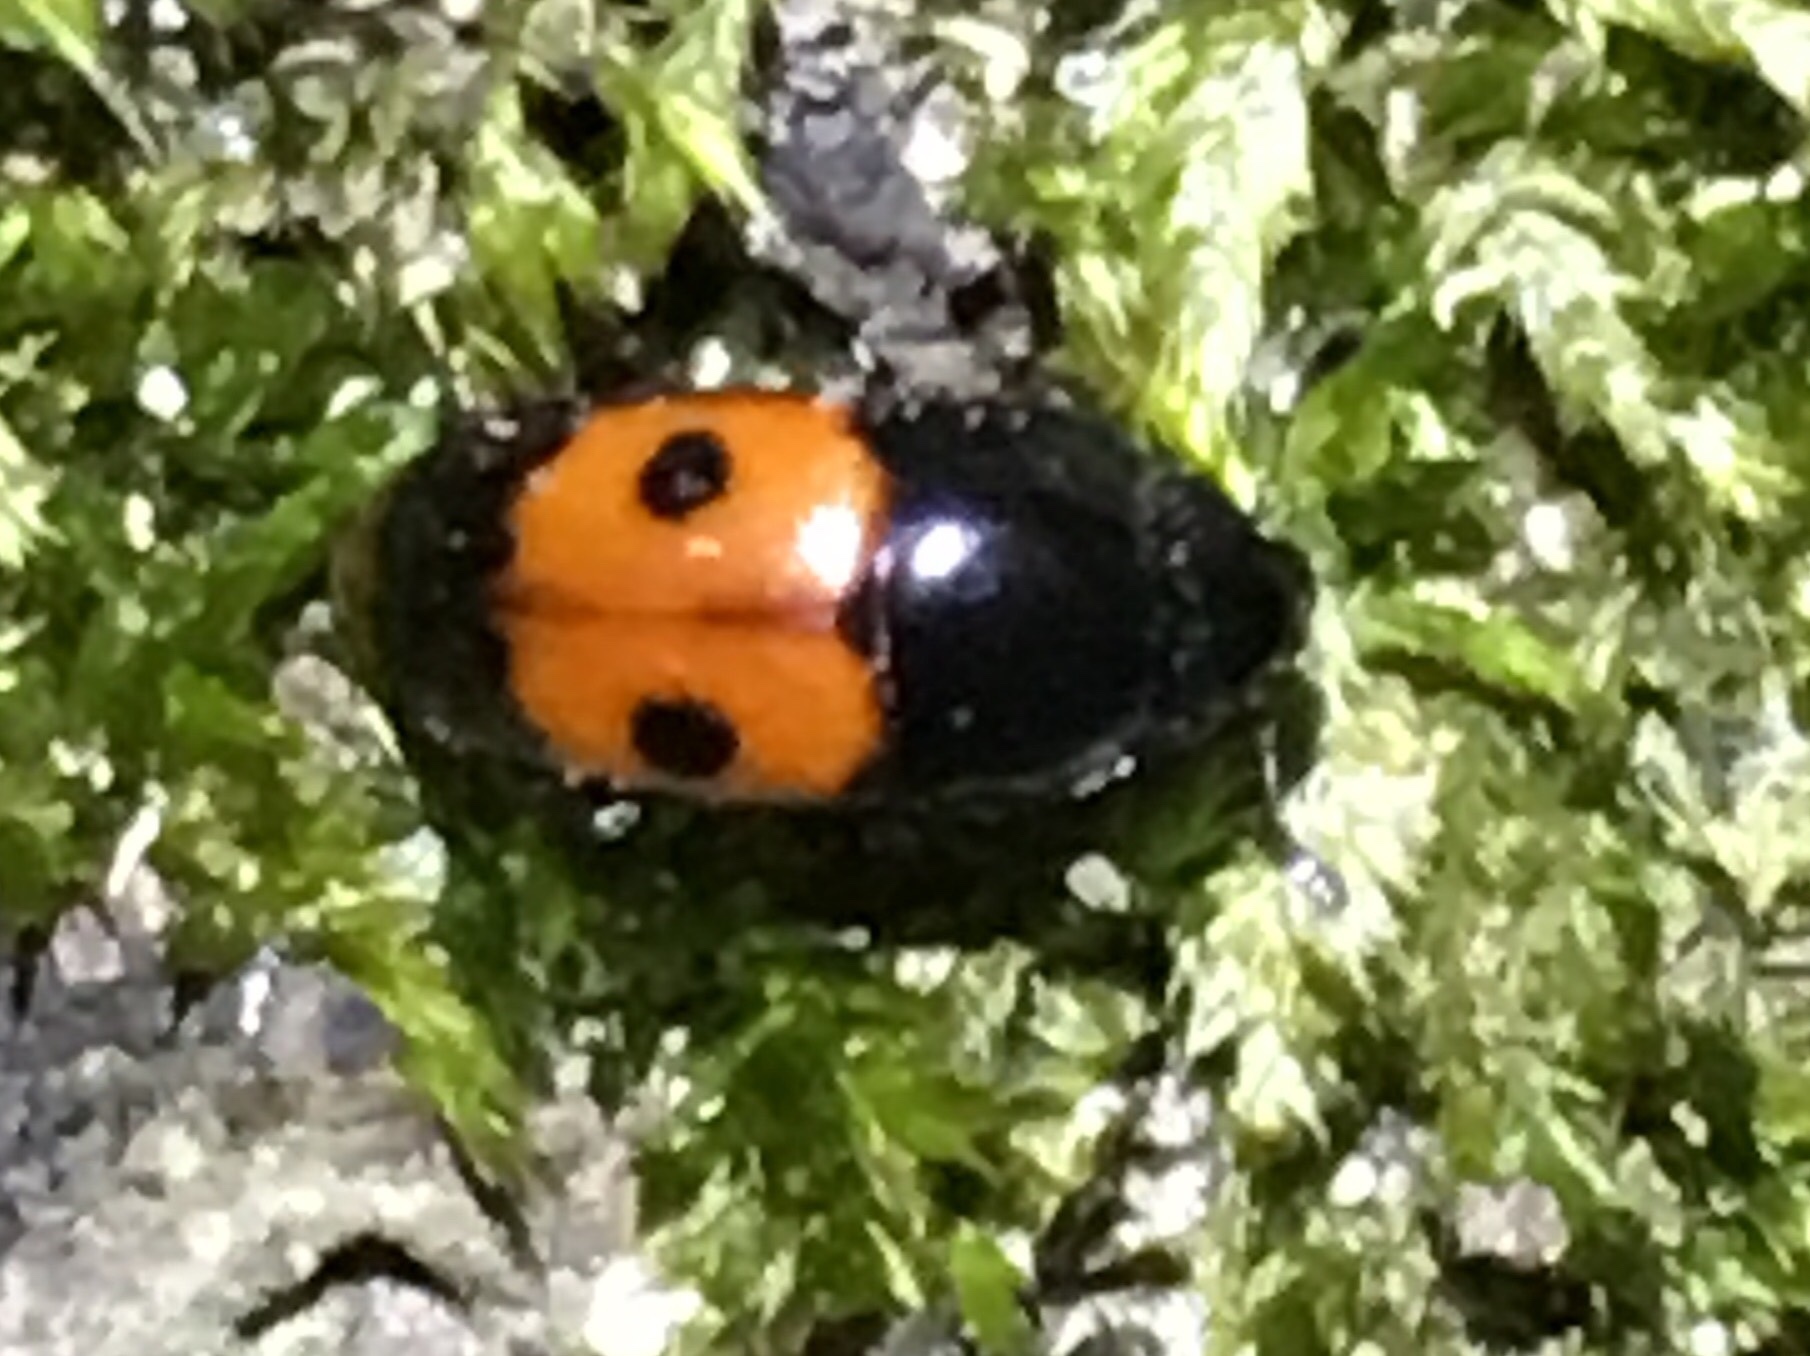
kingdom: Animalia
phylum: Arthropoda
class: Insecta
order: Coleoptera
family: Nitidulidae
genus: Glischrochilus
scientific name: Glischrochilus sanguinolentus
